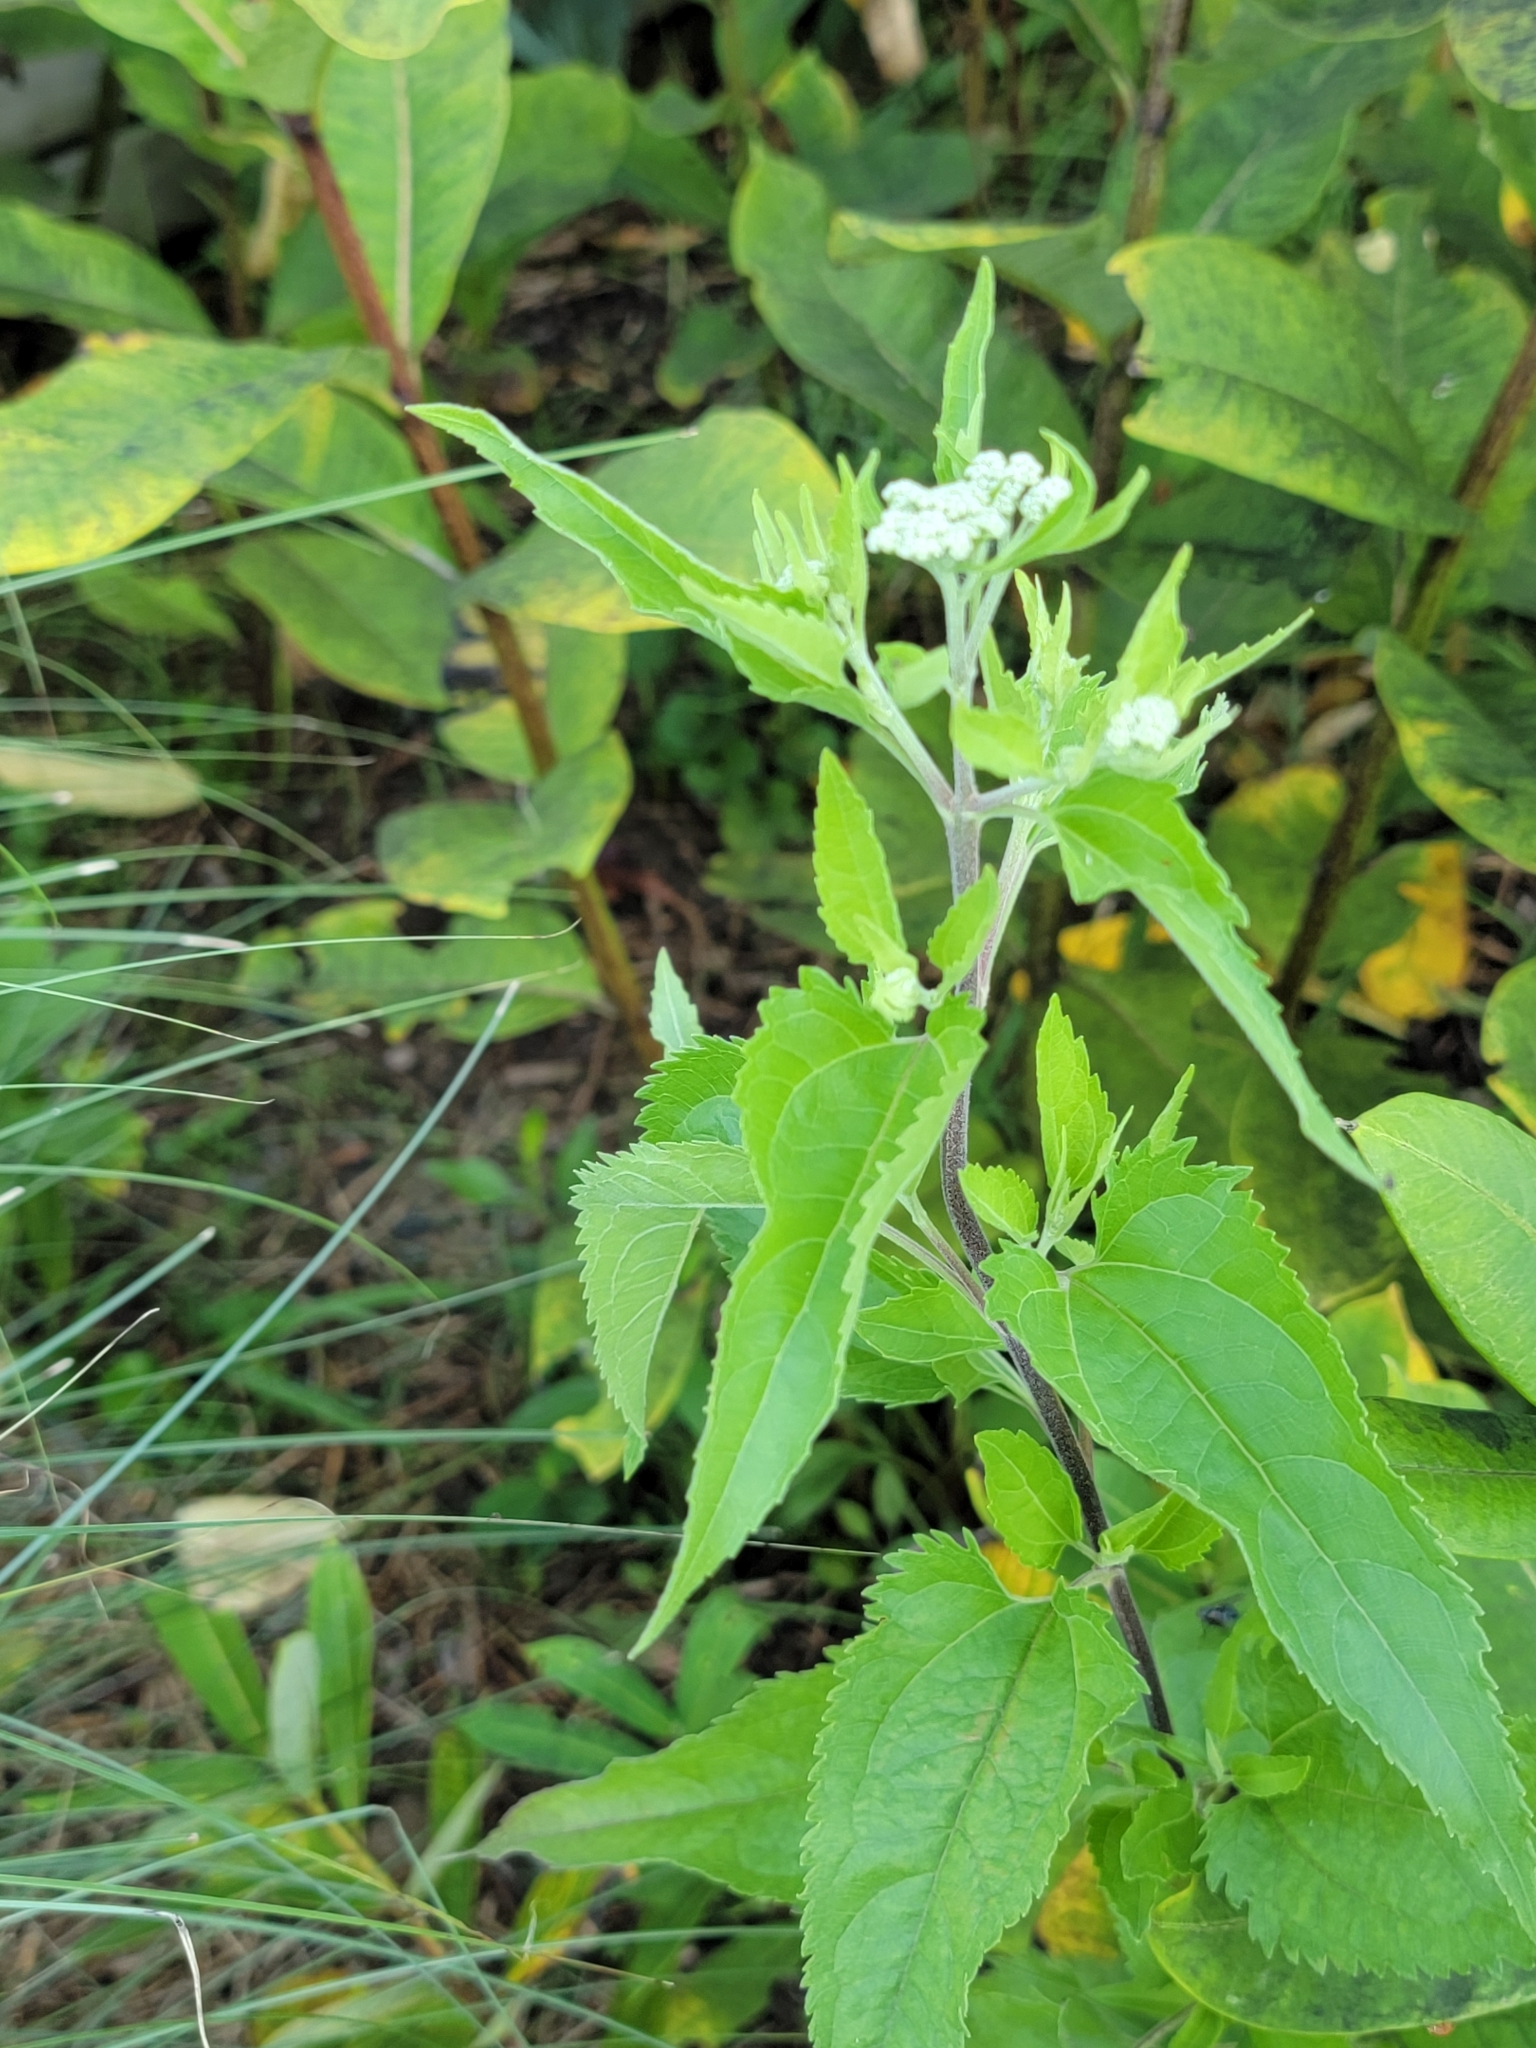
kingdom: Plantae
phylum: Tracheophyta
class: Magnoliopsida
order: Asterales
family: Asteraceae
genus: Eupatorium
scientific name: Eupatorium serotinum
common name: Late boneset
